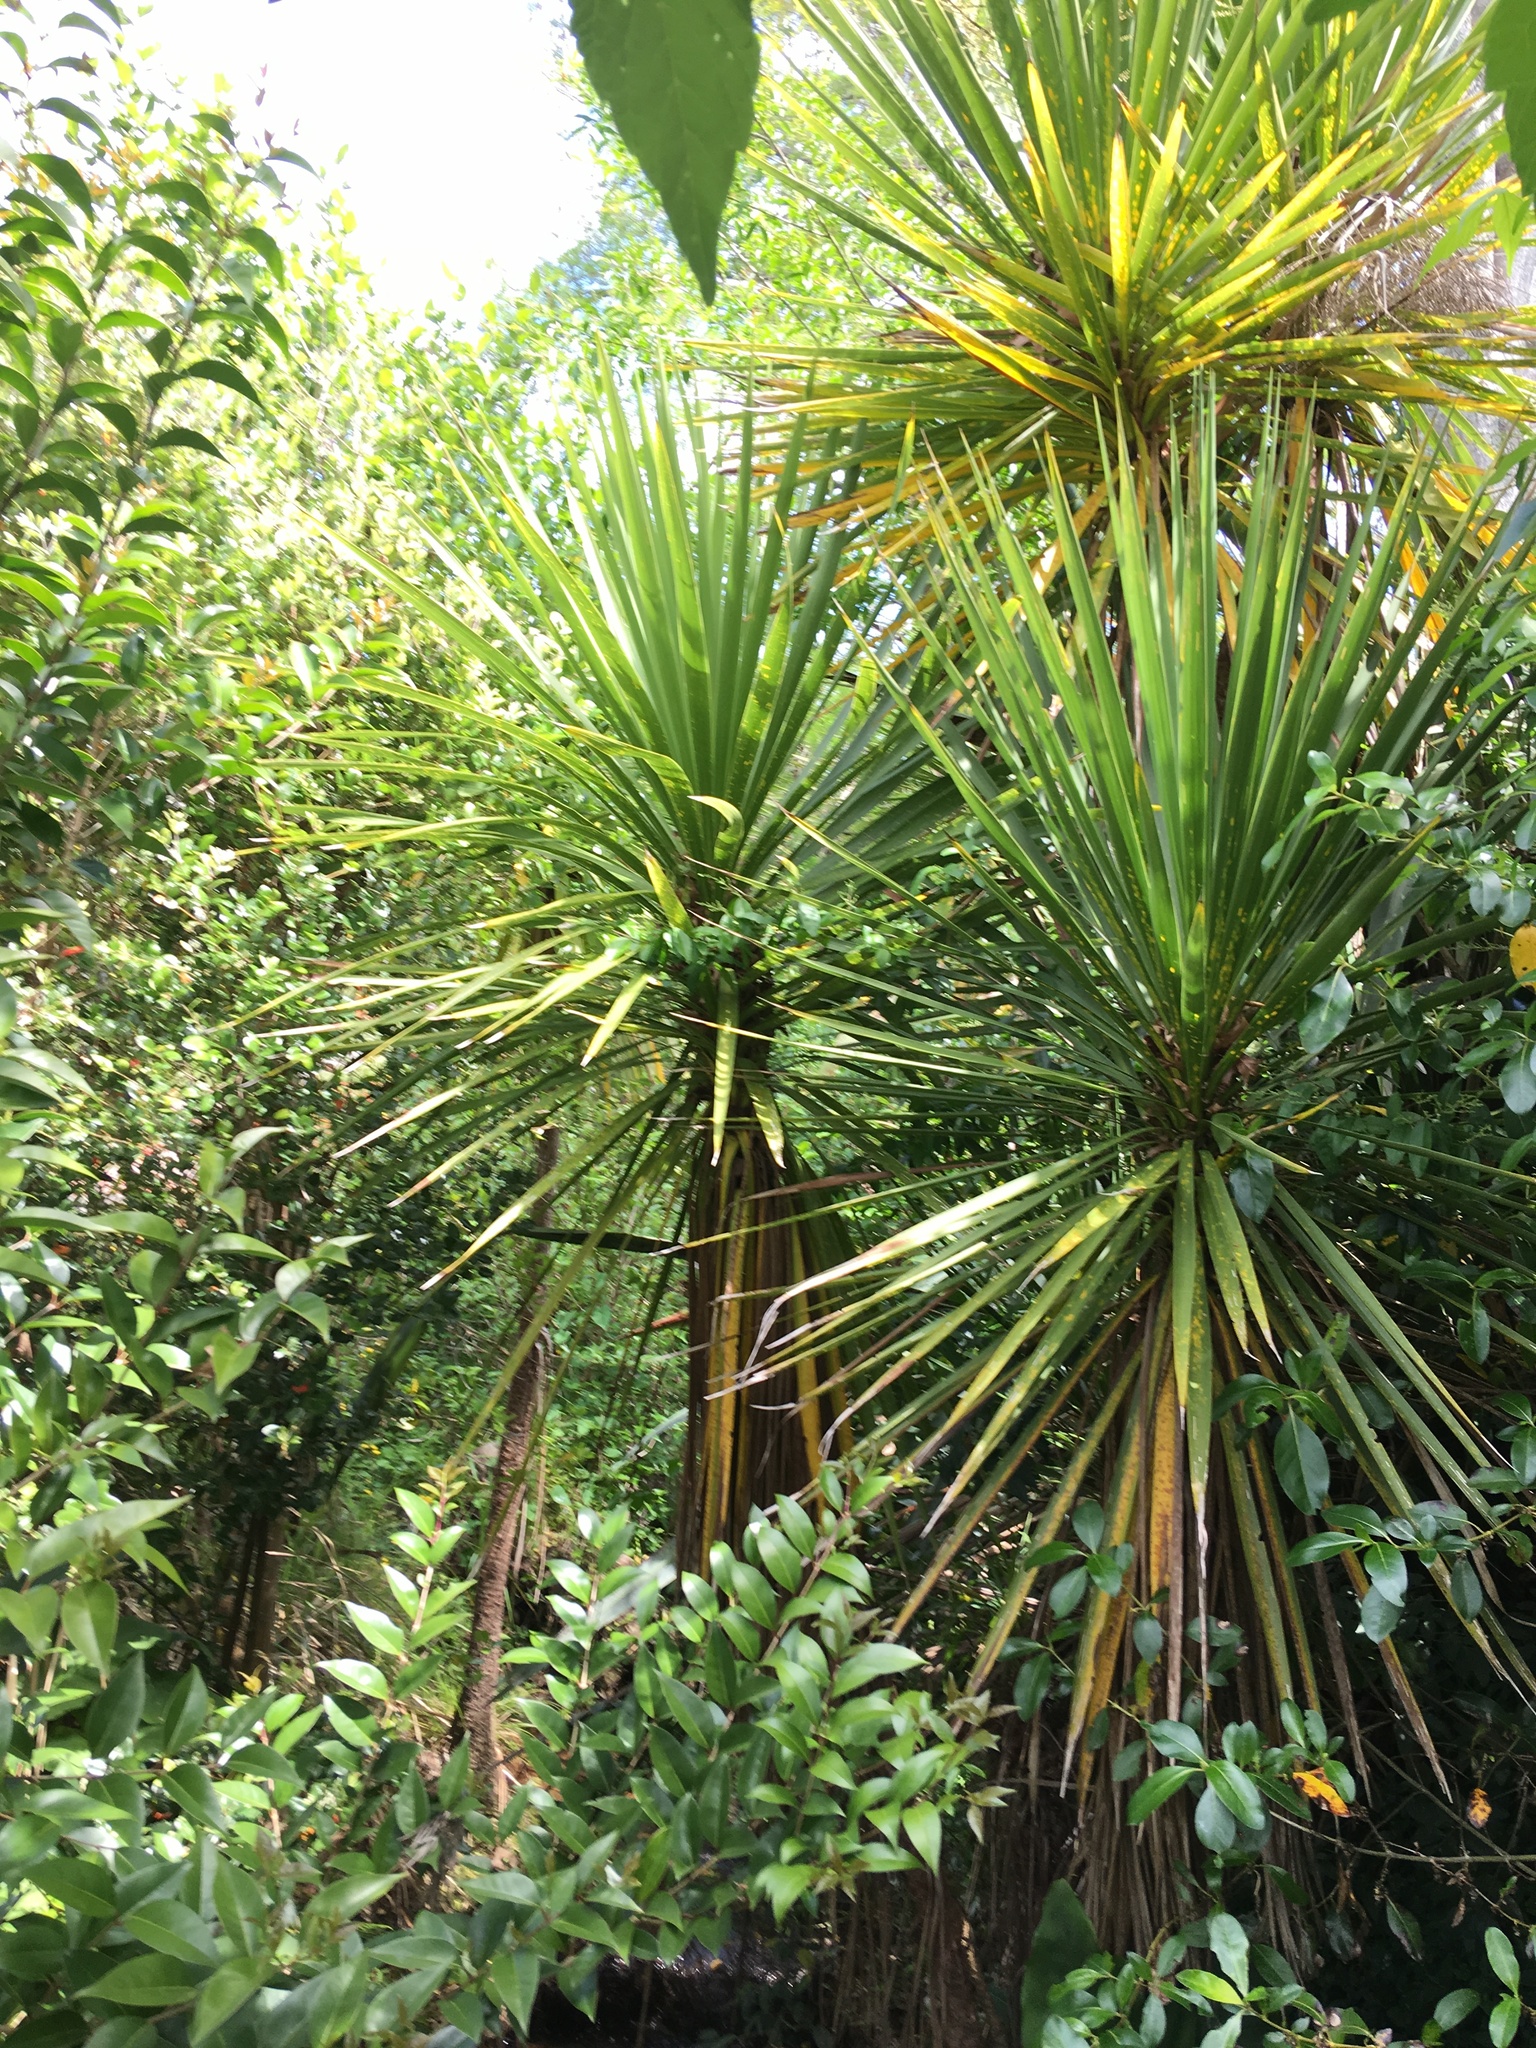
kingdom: Plantae
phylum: Tracheophyta
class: Liliopsida
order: Asparagales
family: Asparagaceae
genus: Cordyline
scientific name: Cordyline australis
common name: Cabbage-palm
